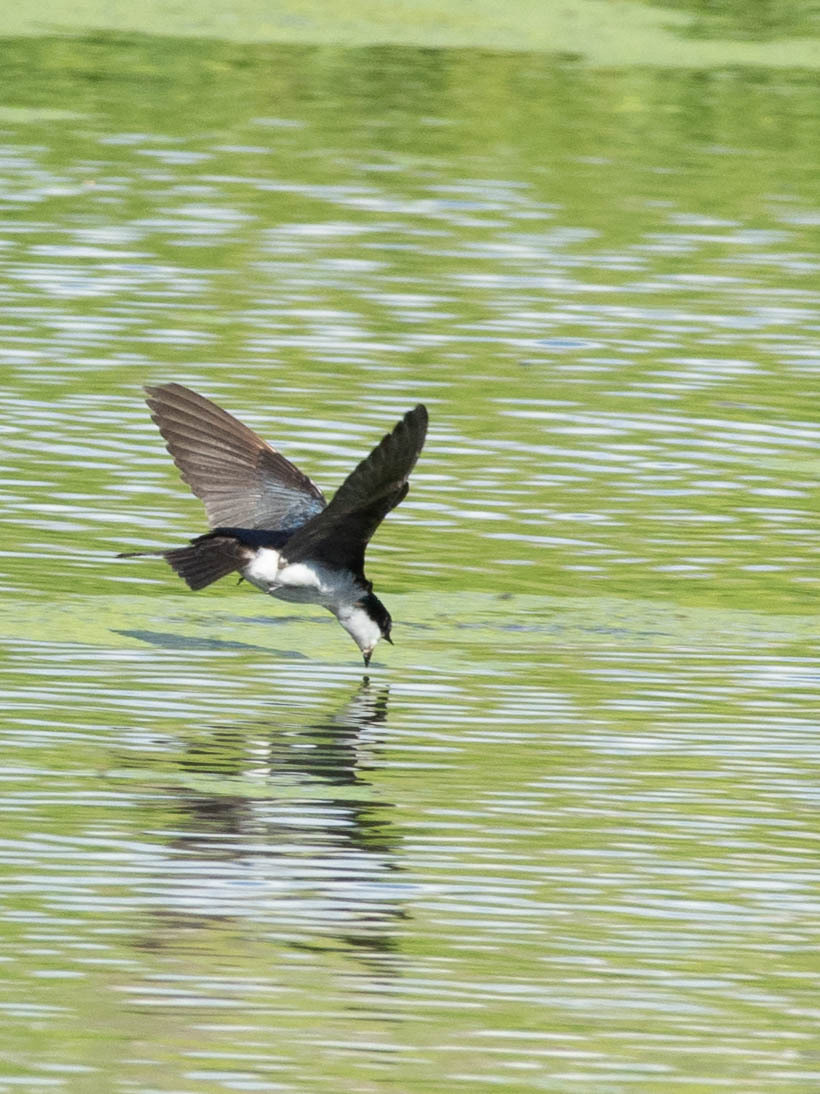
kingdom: Animalia
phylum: Chordata
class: Aves
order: Passeriformes
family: Hirundinidae
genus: Tachycineta
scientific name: Tachycineta bicolor
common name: Tree swallow
